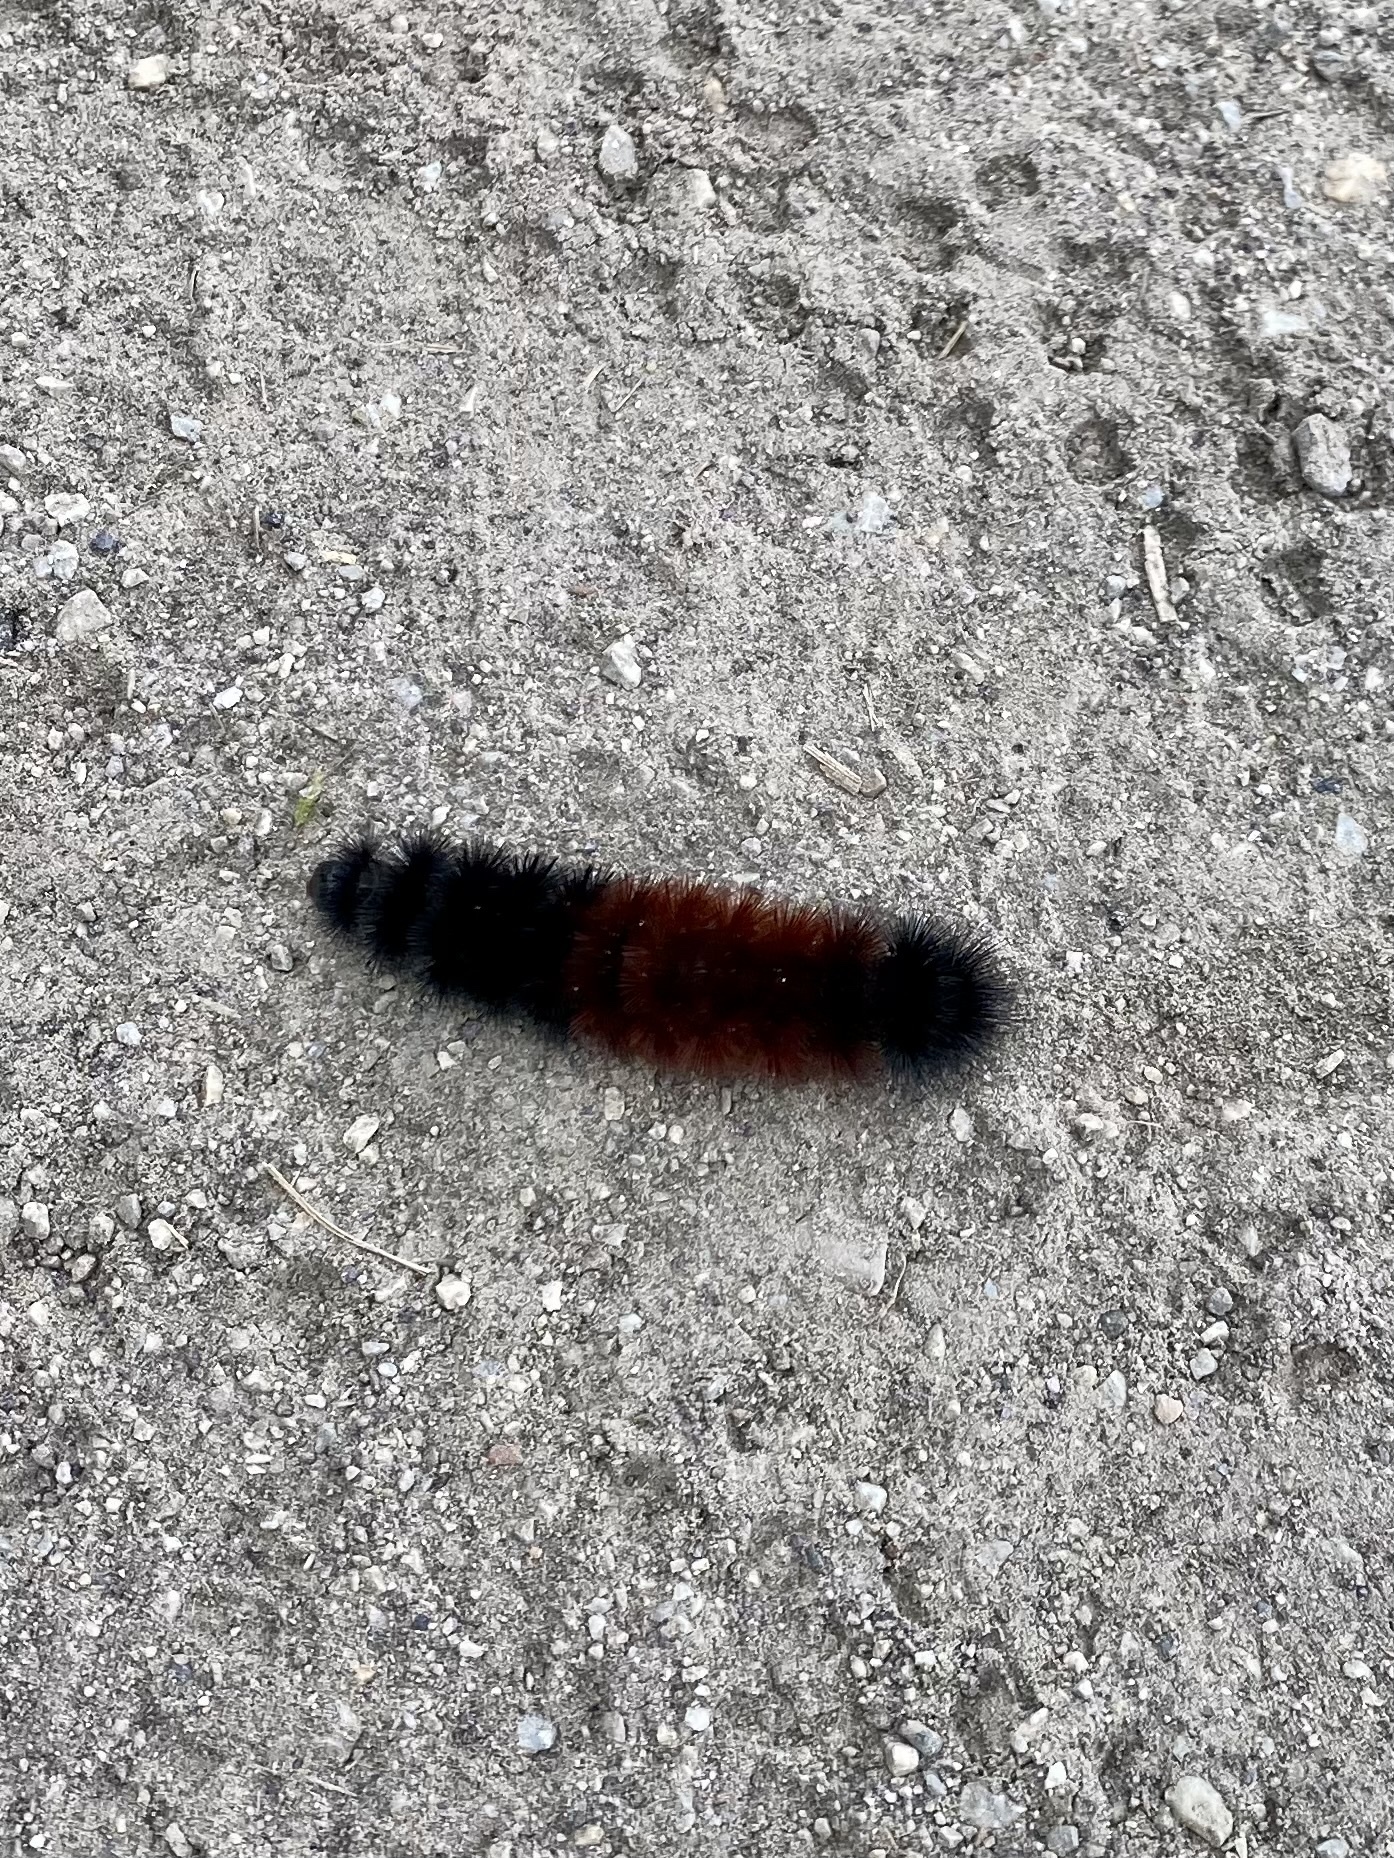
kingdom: Animalia
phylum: Arthropoda
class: Insecta
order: Lepidoptera
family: Erebidae
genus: Pyrrharctia
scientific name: Pyrrharctia isabella
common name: Isabella tiger moth
